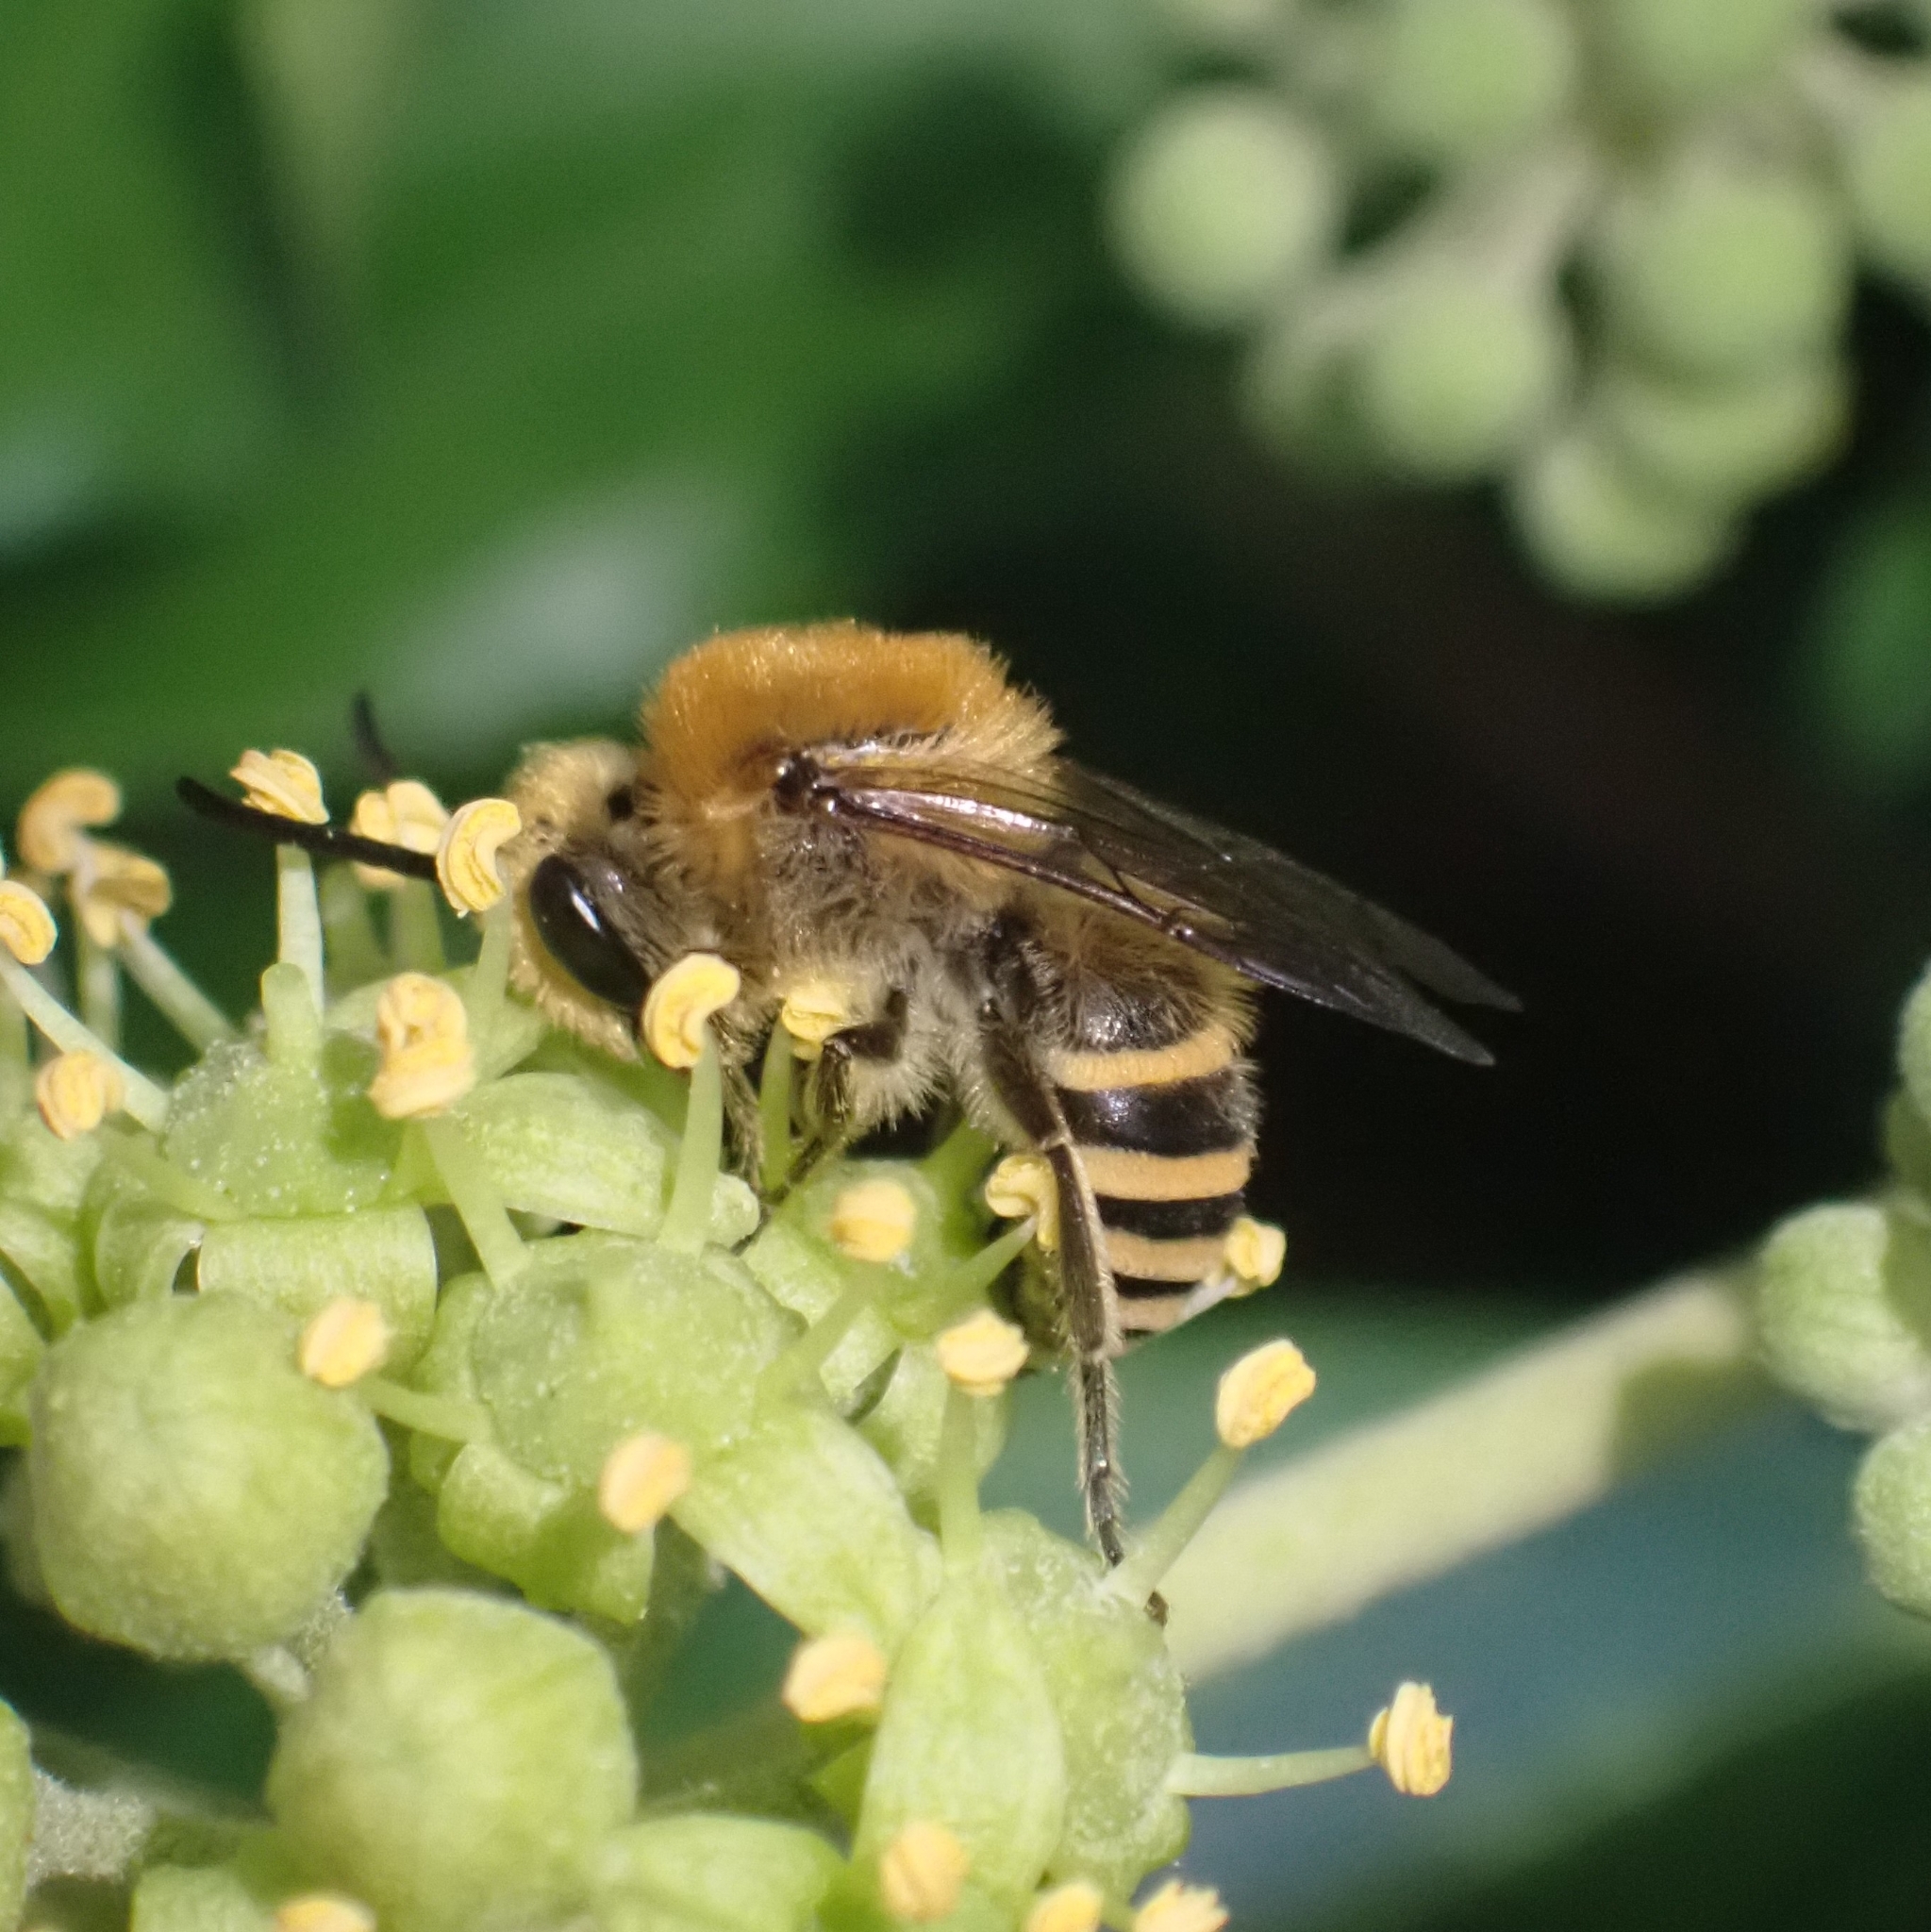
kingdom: Animalia
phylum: Arthropoda
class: Insecta
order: Hymenoptera
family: Colletidae
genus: Colletes
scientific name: Colletes hederae
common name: Ivy bee
